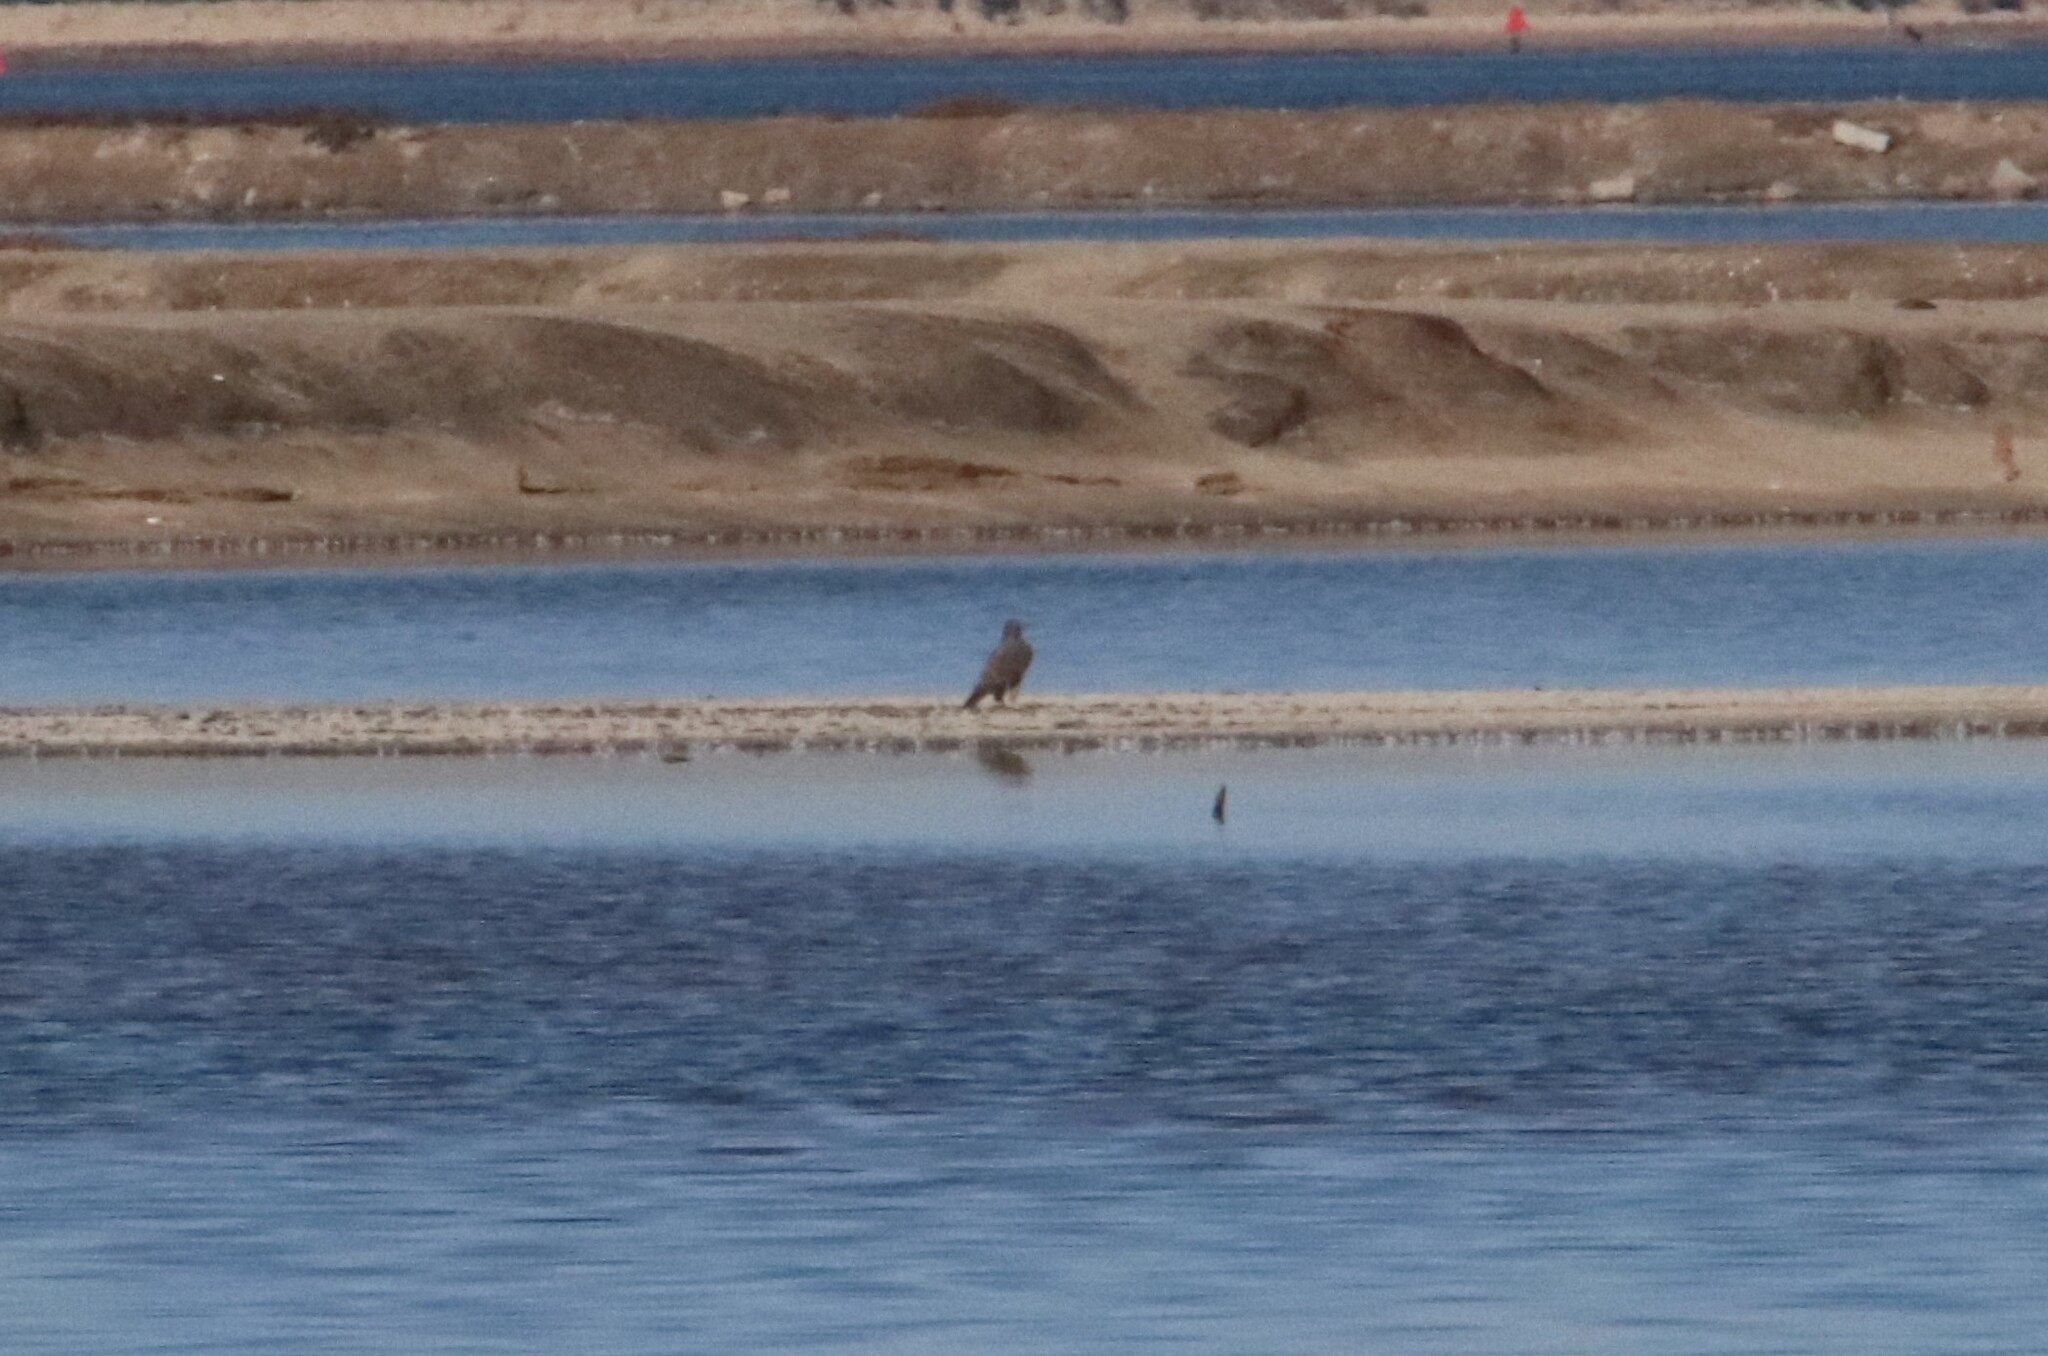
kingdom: Animalia
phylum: Chordata
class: Aves
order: Falconiformes
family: Falconidae
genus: Falco
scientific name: Falco peregrinus
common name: Peregrine falcon
